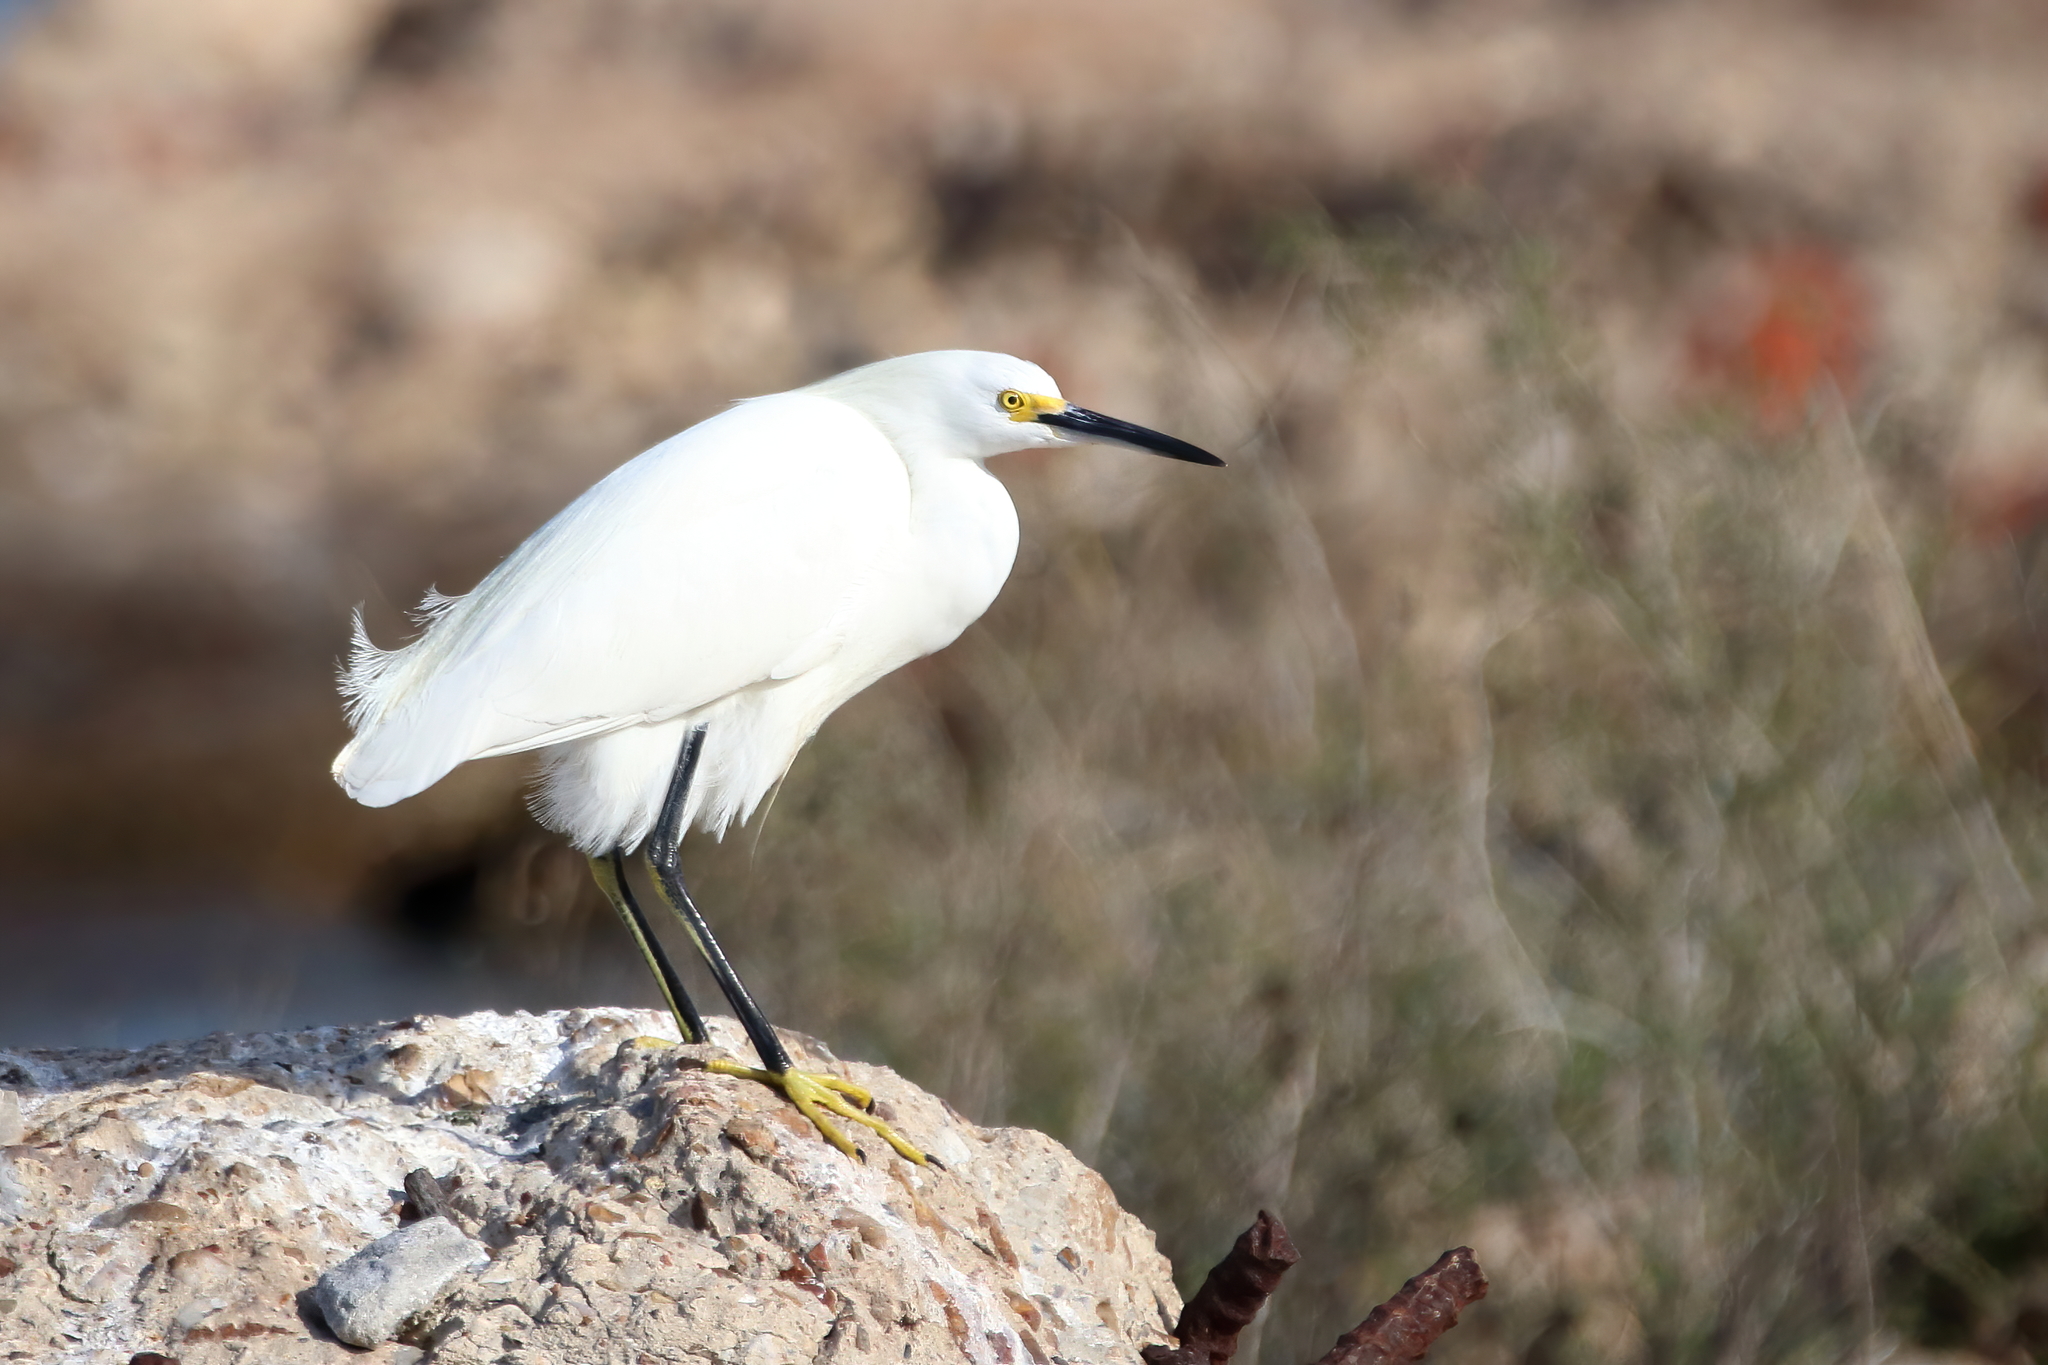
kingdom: Animalia
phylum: Chordata
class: Aves
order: Pelecaniformes
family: Ardeidae
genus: Egretta
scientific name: Egretta thula
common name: Snowy egret
